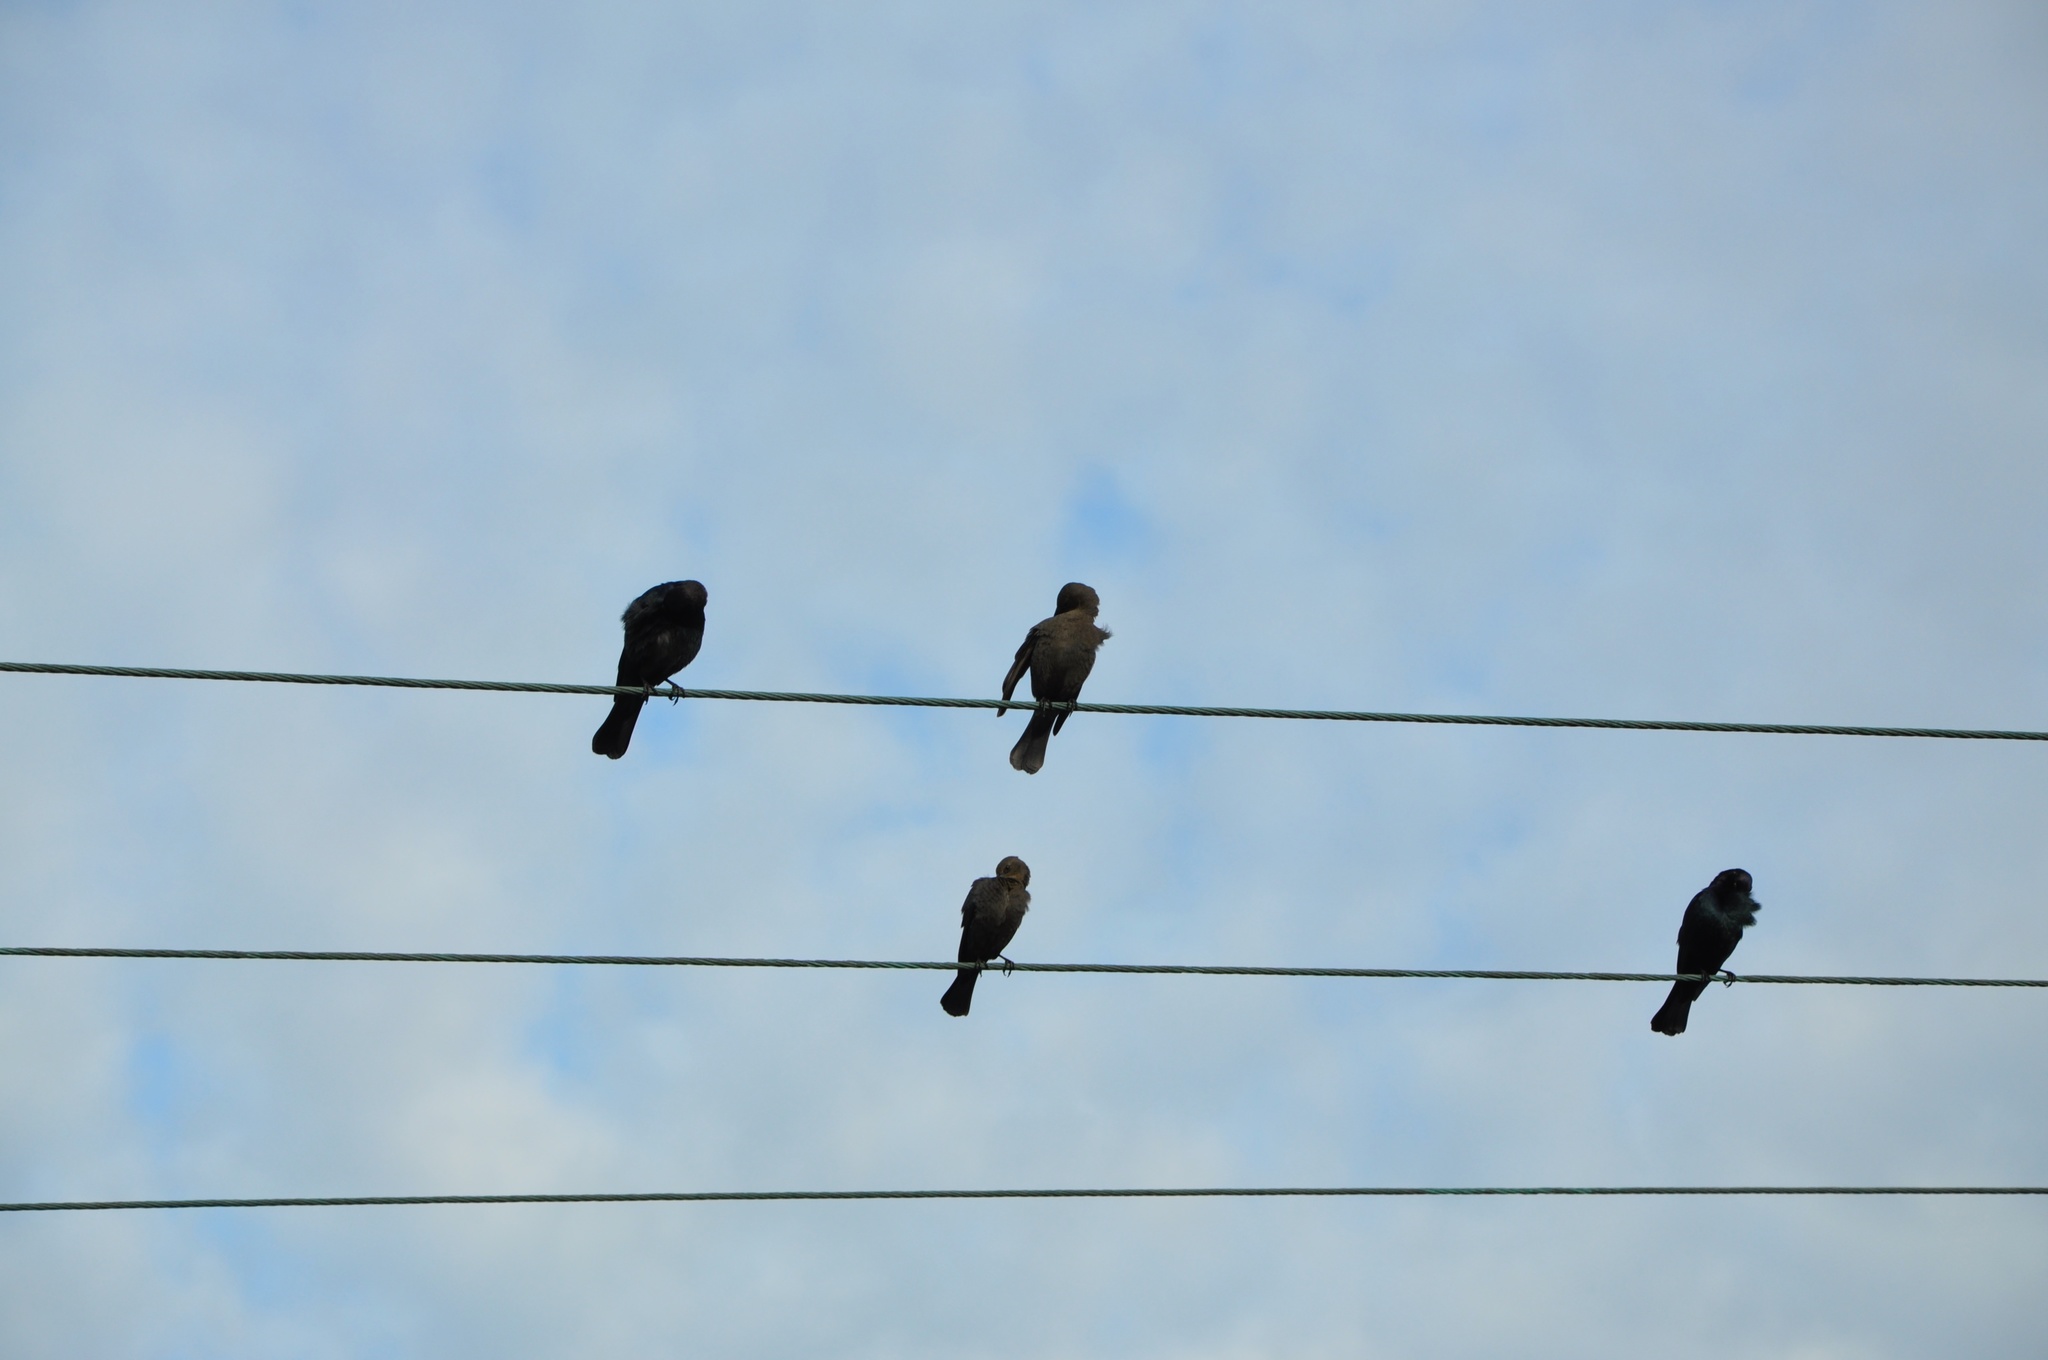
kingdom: Animalia
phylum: Chordata
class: Aves
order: Passeriformes
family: Icteridae
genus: Agelaius
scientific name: Agelaius phoeniceus
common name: Red-winged blackbird
